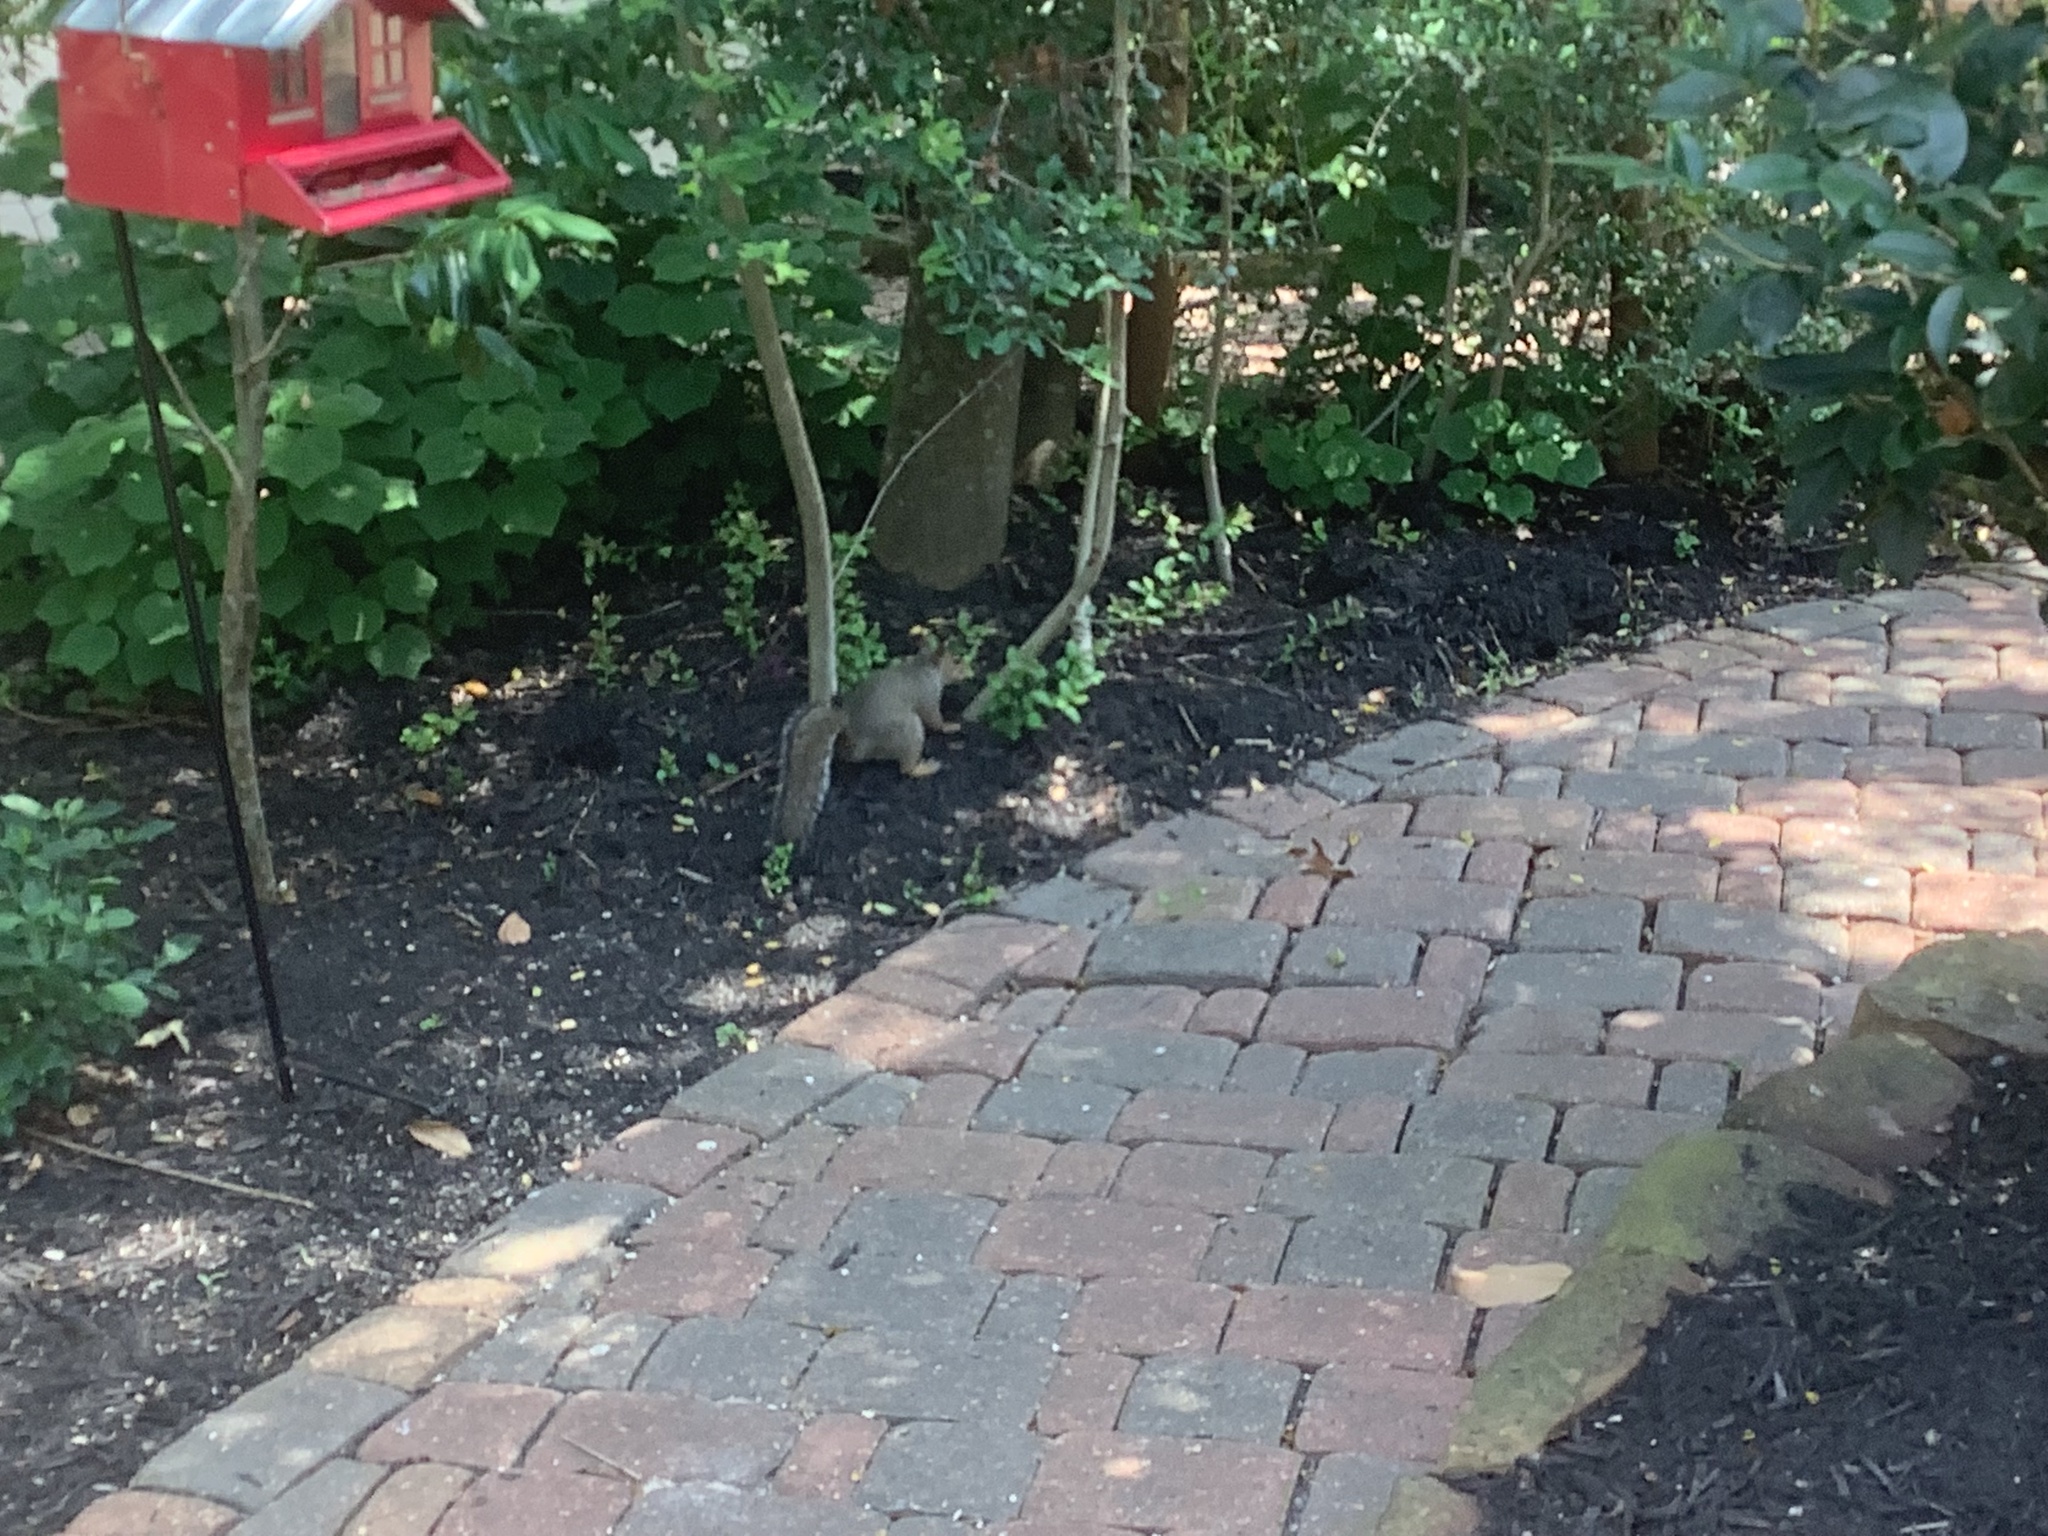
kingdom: Animalia
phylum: Chordata
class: Mammalia
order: Rodentia
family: Sciuridae
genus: Sciurus
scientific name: Sciurus carolinensis
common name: Eastern gray squirrel
